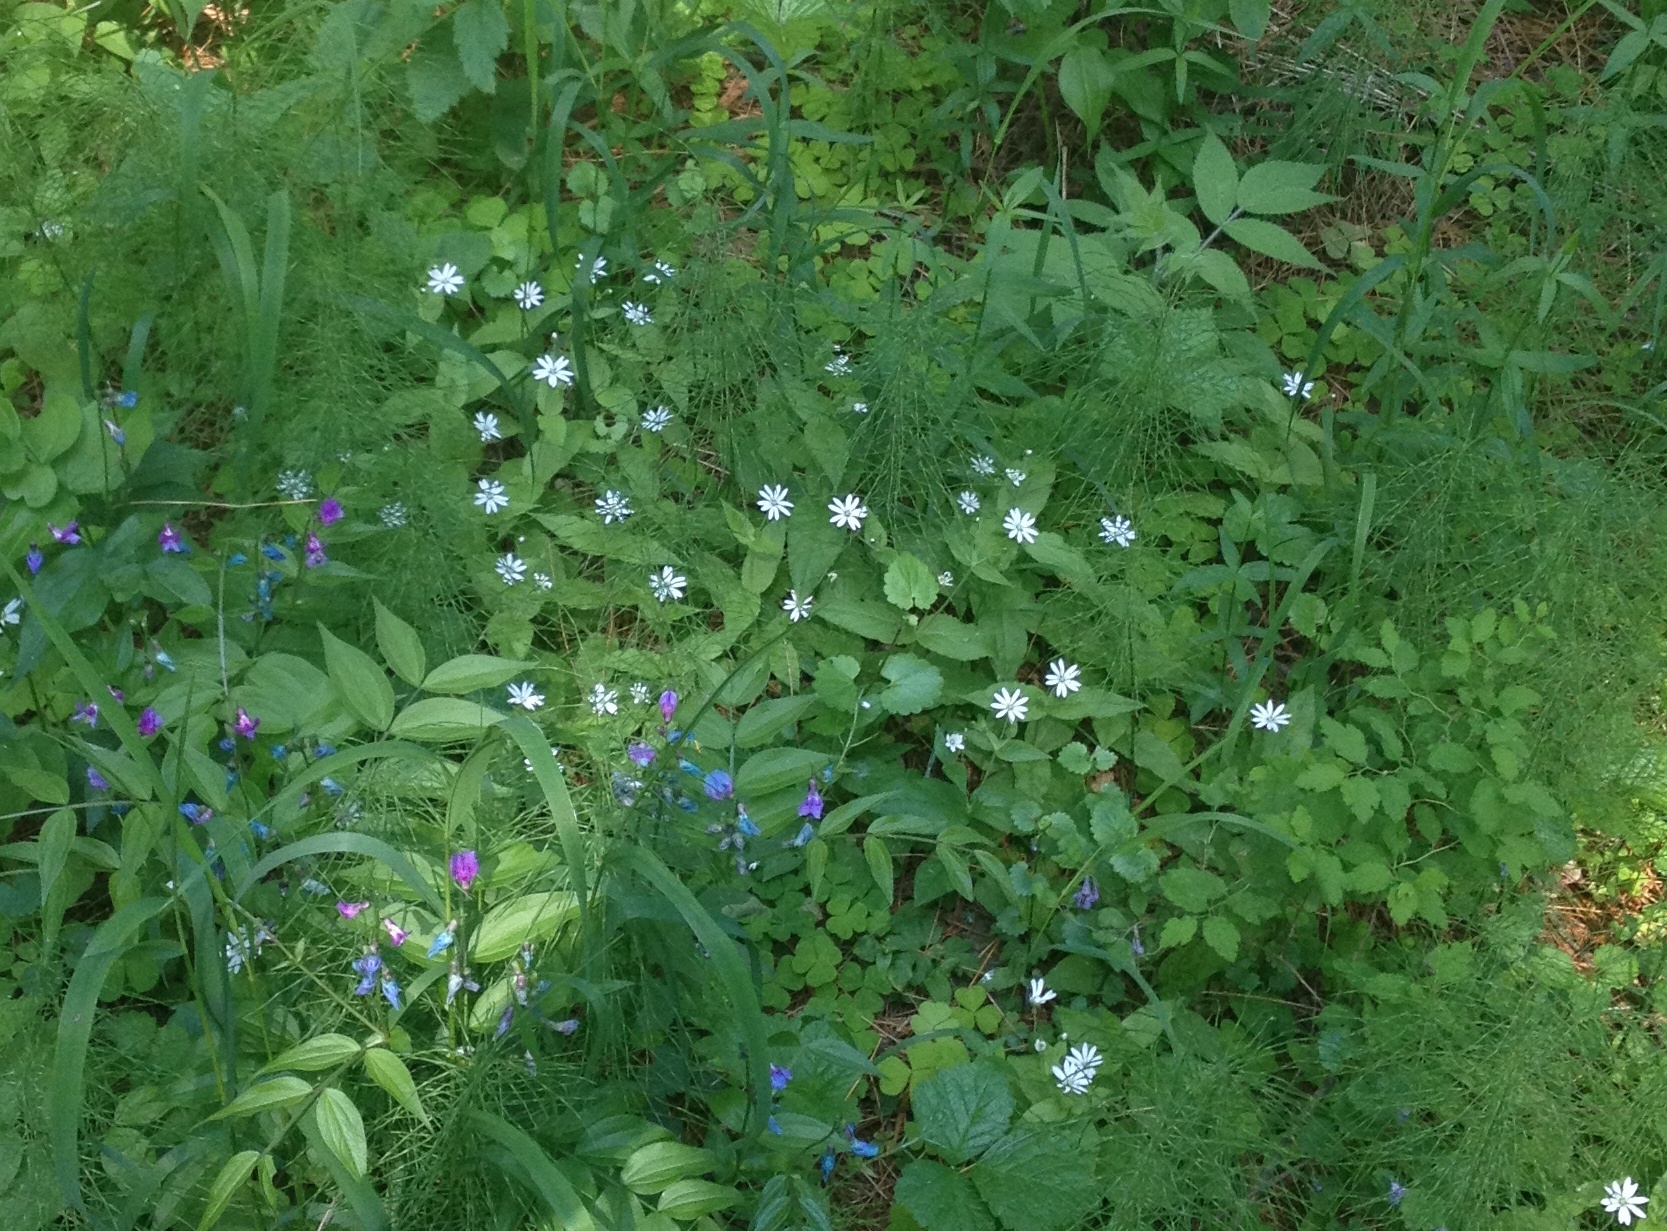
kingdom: Plantae
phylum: Tracheophyta
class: Magnoliopsida
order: Caryophyllales
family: Caryophyllaceae
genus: Stellaria
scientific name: Stellaria bungeana
